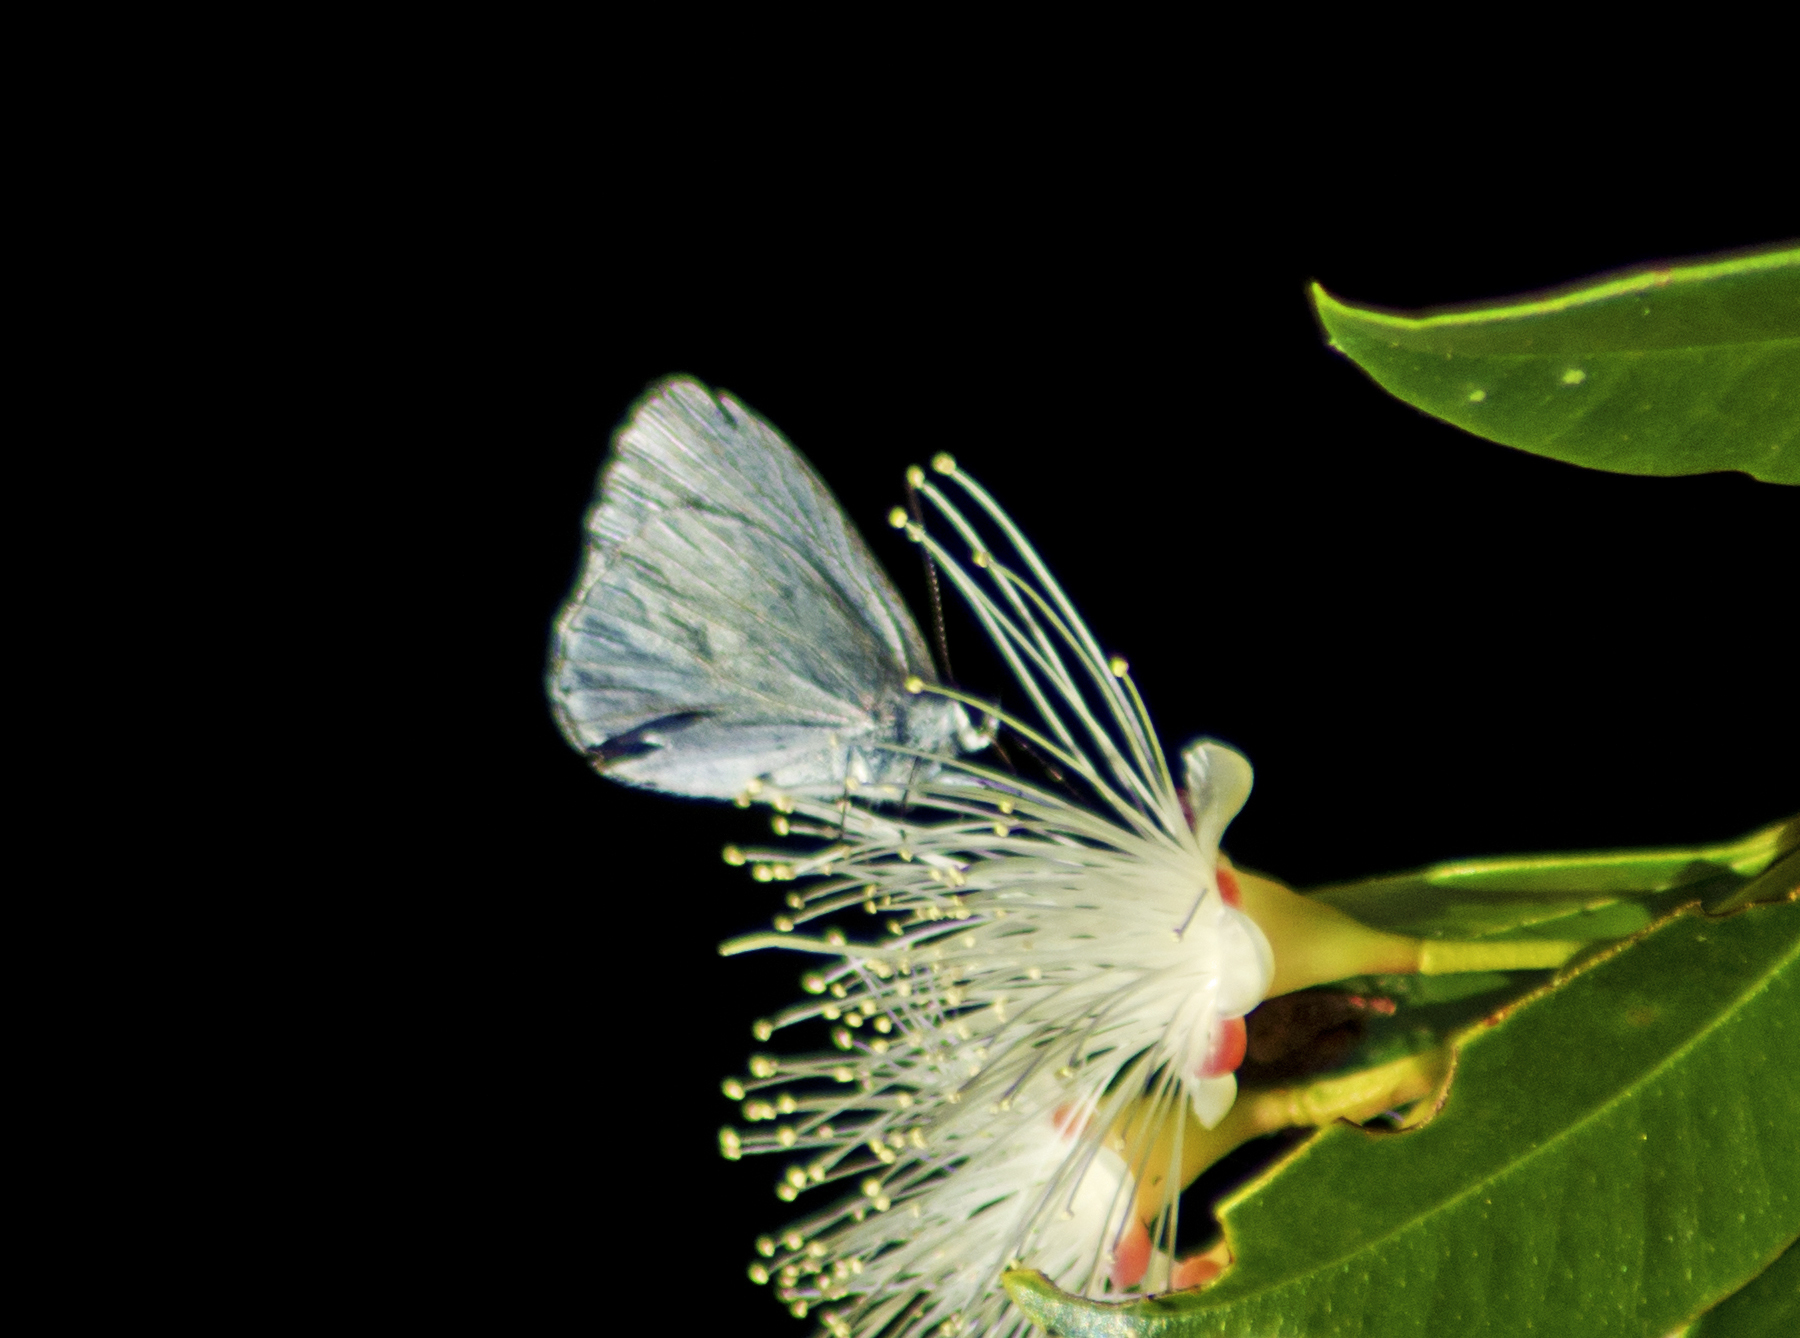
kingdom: Animalia
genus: Eirmocides
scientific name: Eirmocides
